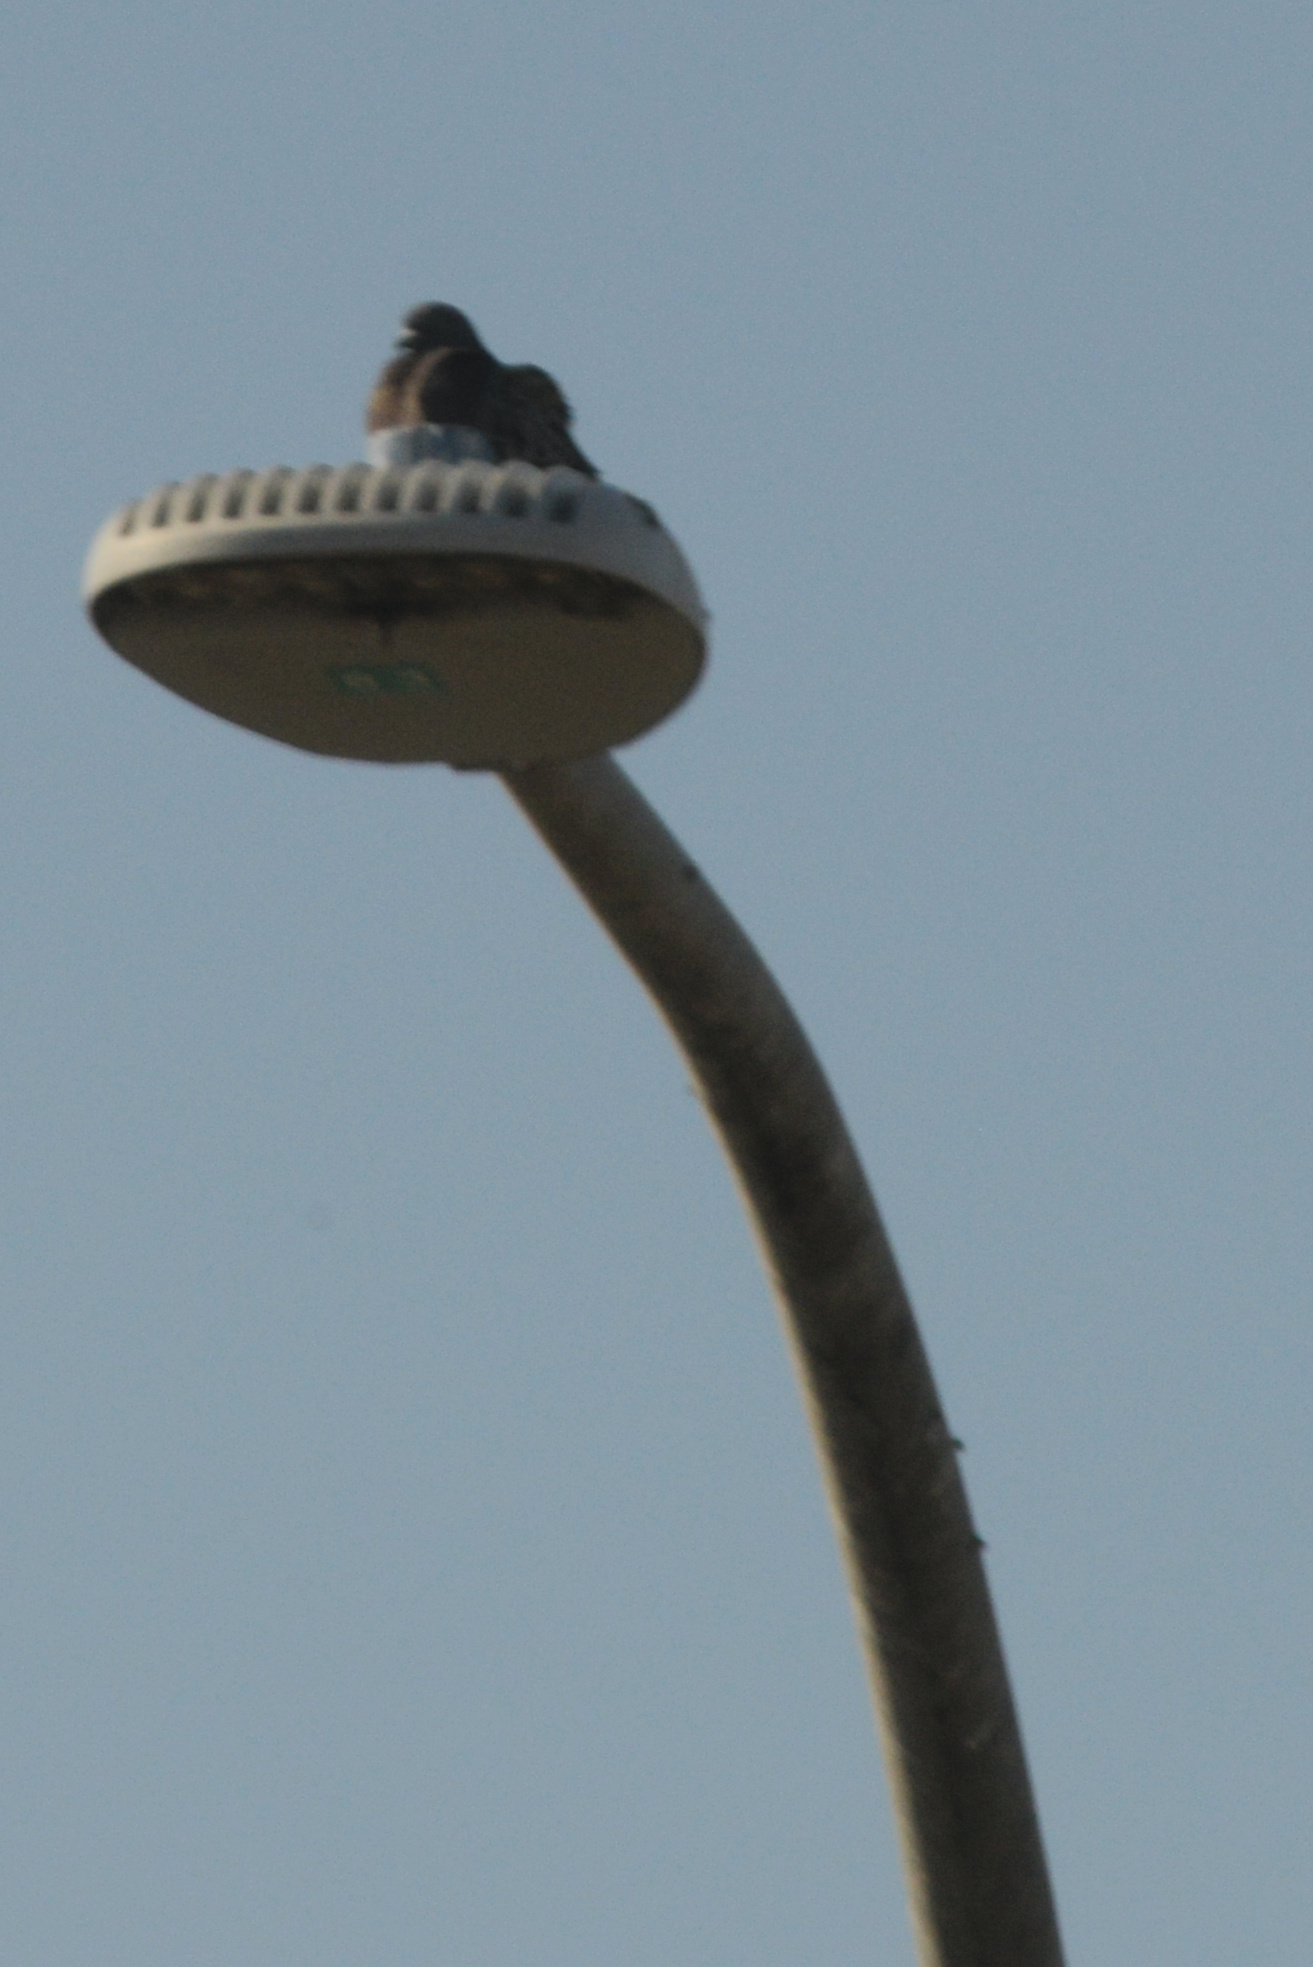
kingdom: Animalia
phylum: Chordata
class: Aves
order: Columbiformes
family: Columbidae
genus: Columba
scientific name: Columba livia
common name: Rock pigeon
